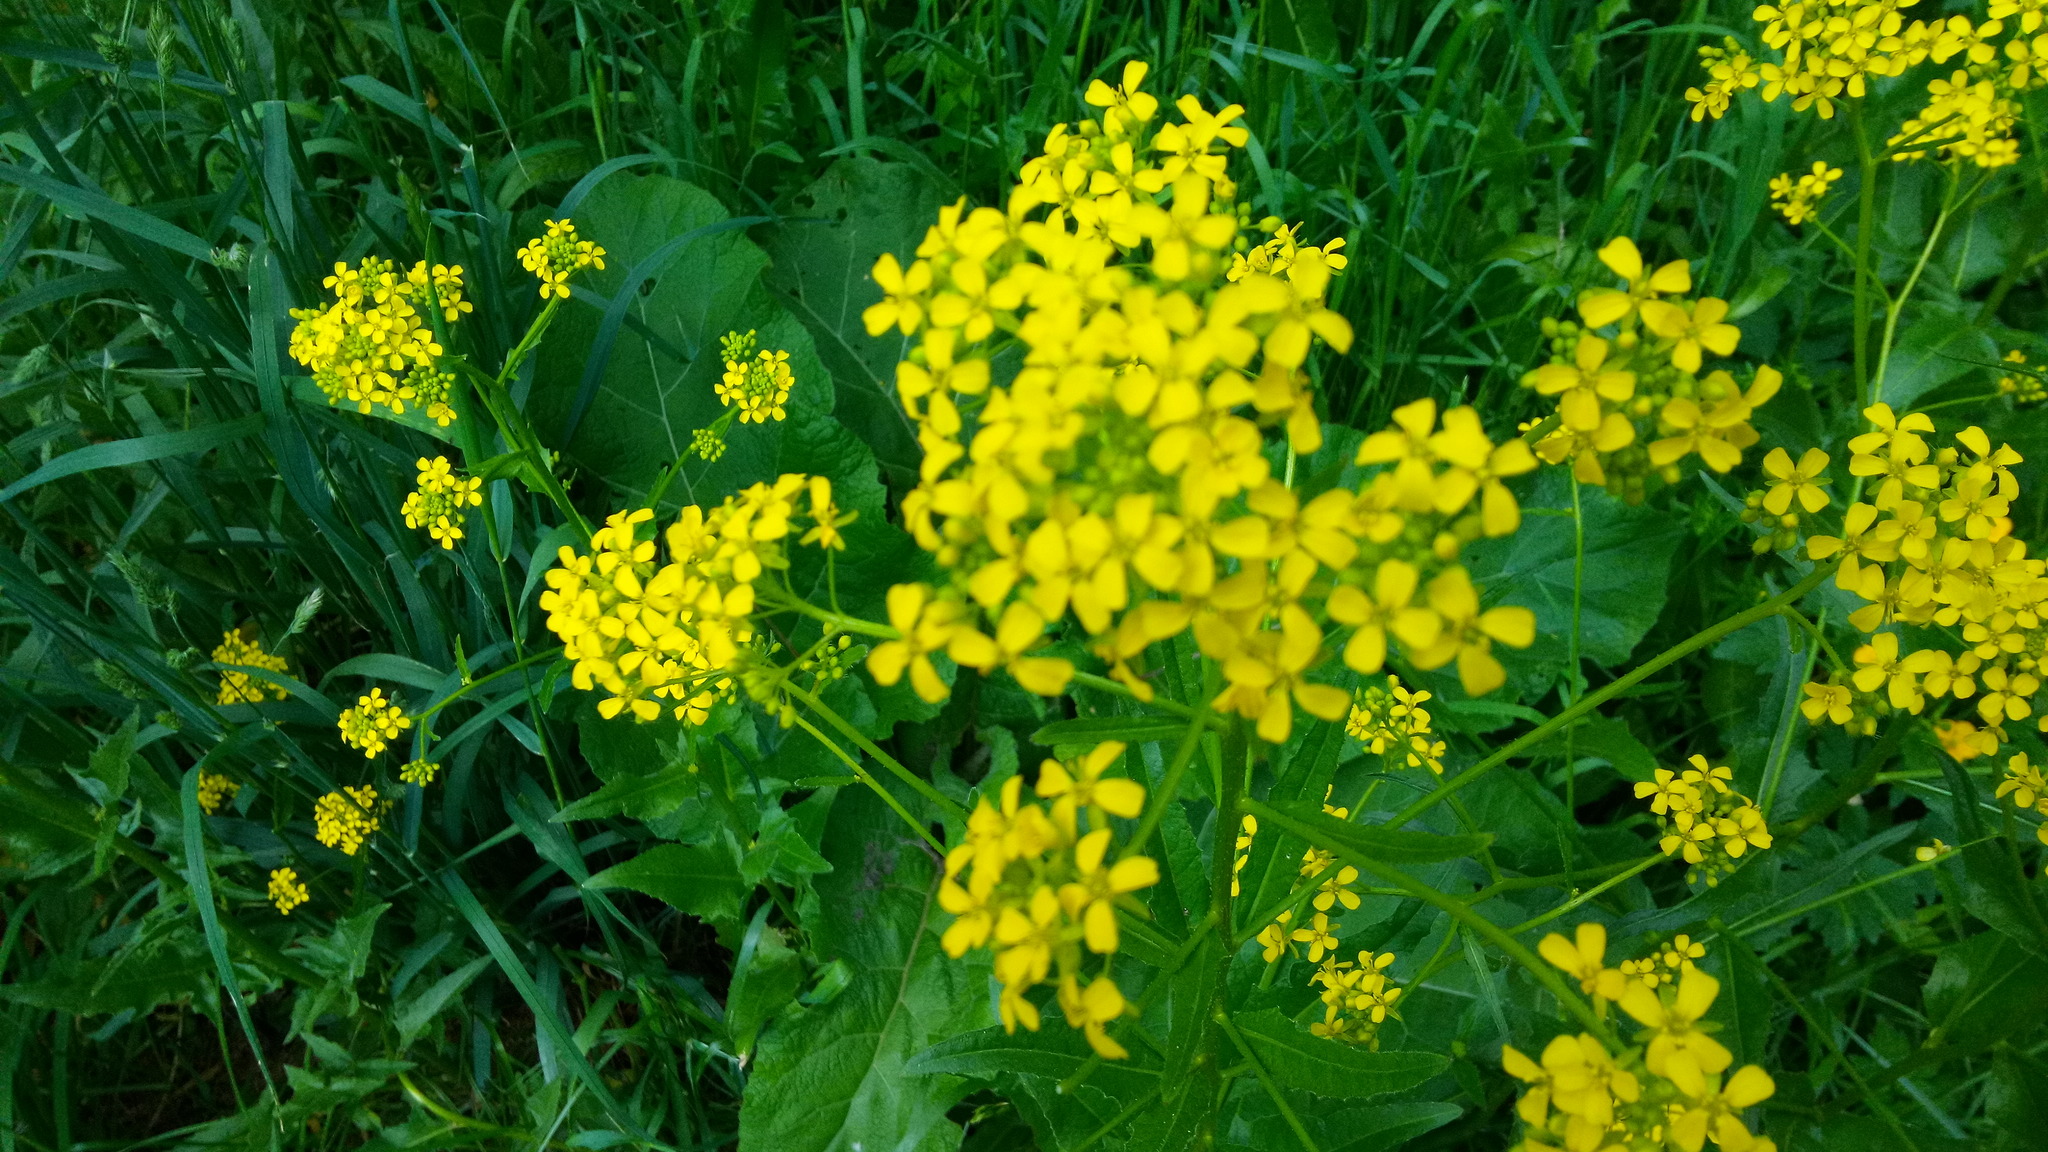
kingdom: Plantae
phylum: Tracheophyta
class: Magnoliopsida
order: Brassicales
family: Brassicaceae
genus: Bunias
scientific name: Bunias orientalis
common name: Warty-cabbage
